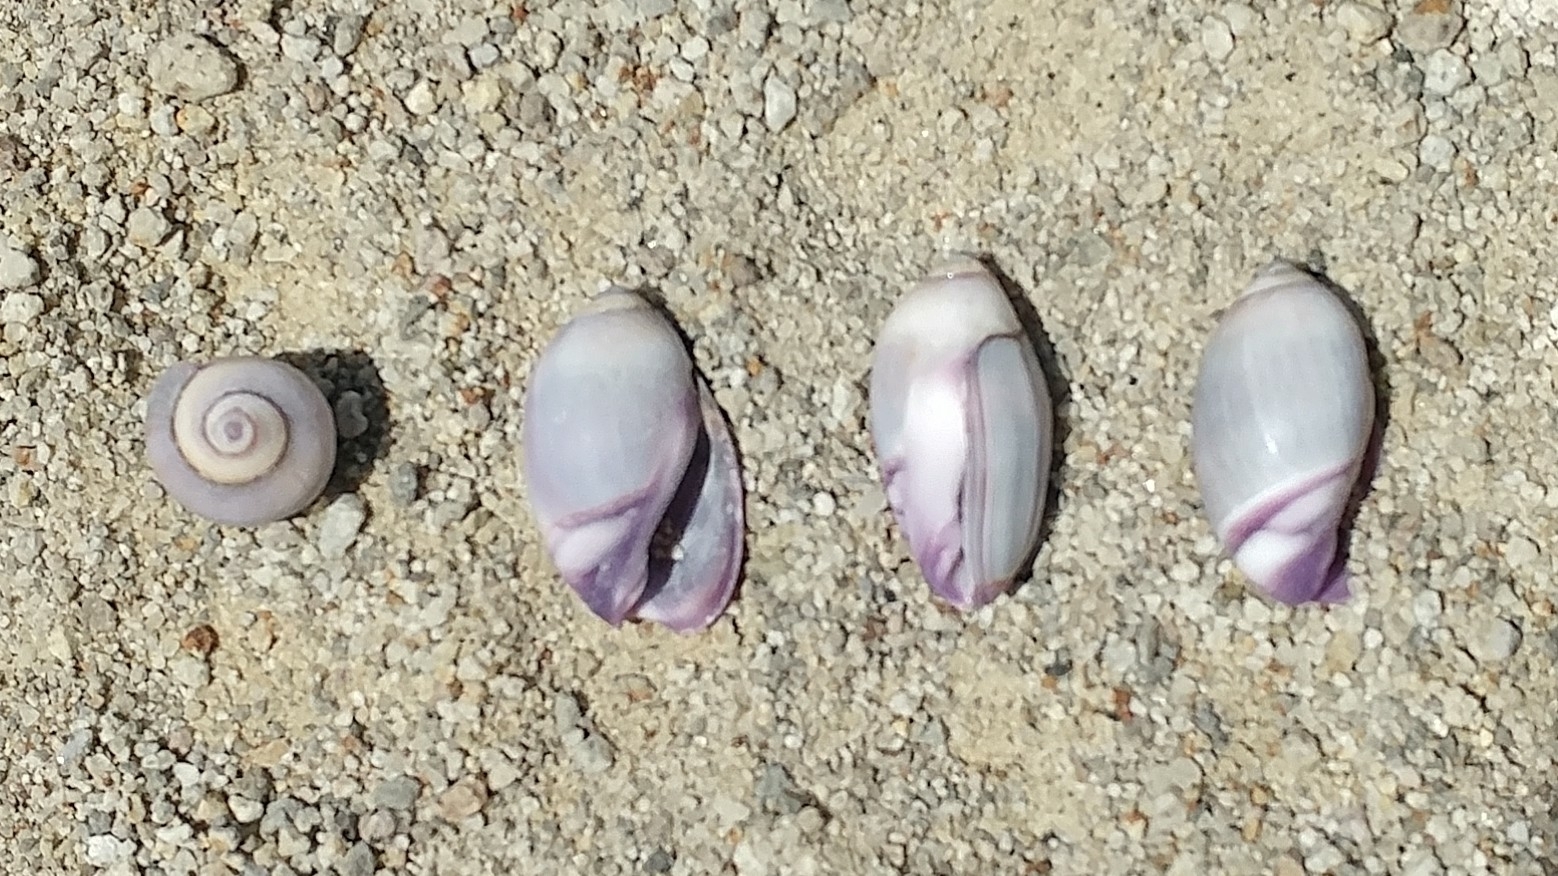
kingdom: Animalia
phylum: Mollusca
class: Gastropoda
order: Neogastropoda
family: Olividae
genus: Callianax
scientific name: Callianax biplicata
